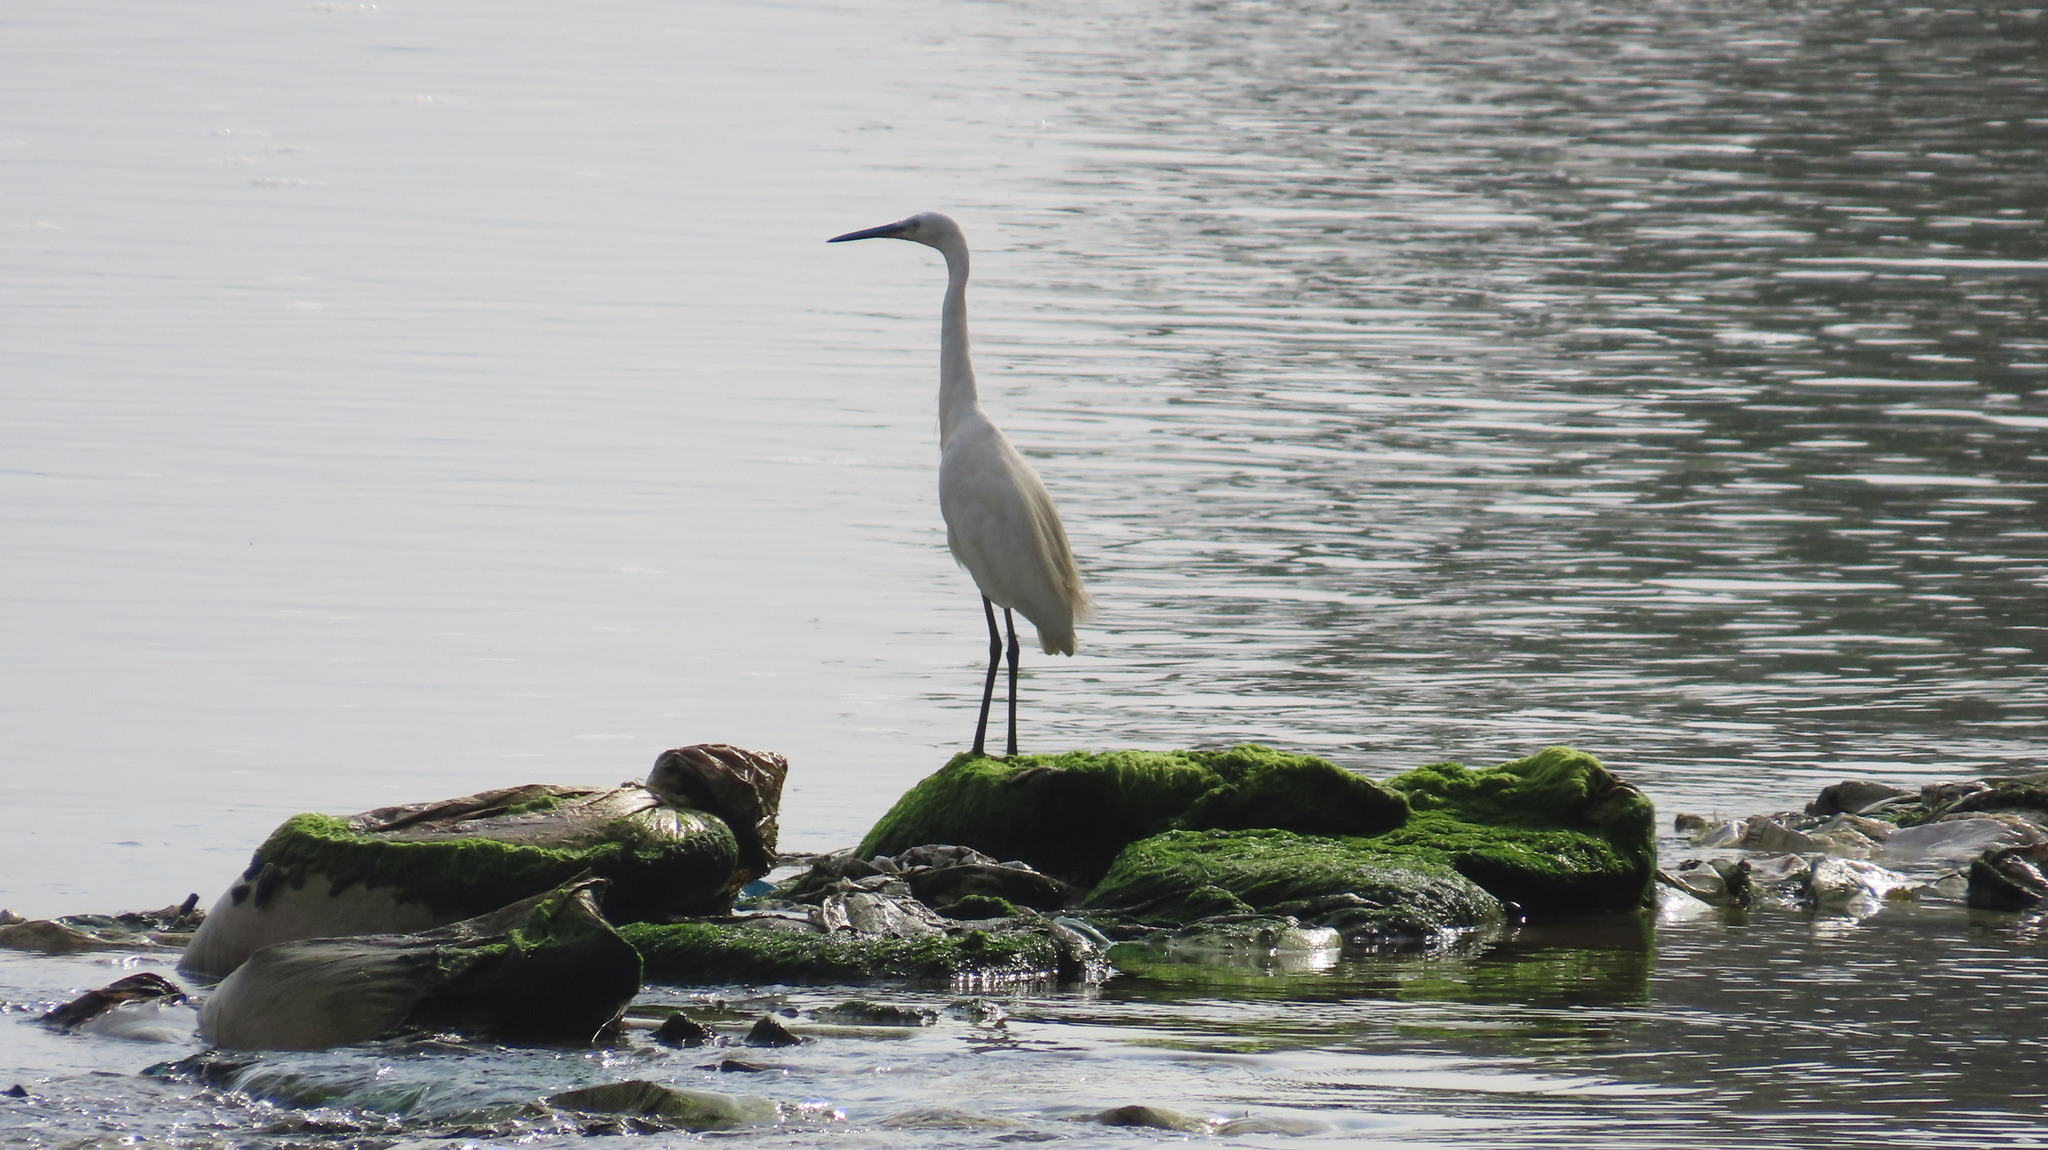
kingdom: Animalia
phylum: Chordata
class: Aves
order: Pelecaniformes
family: Ardeidae
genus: Egretta
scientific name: Egretta garzetta
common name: Little egret
